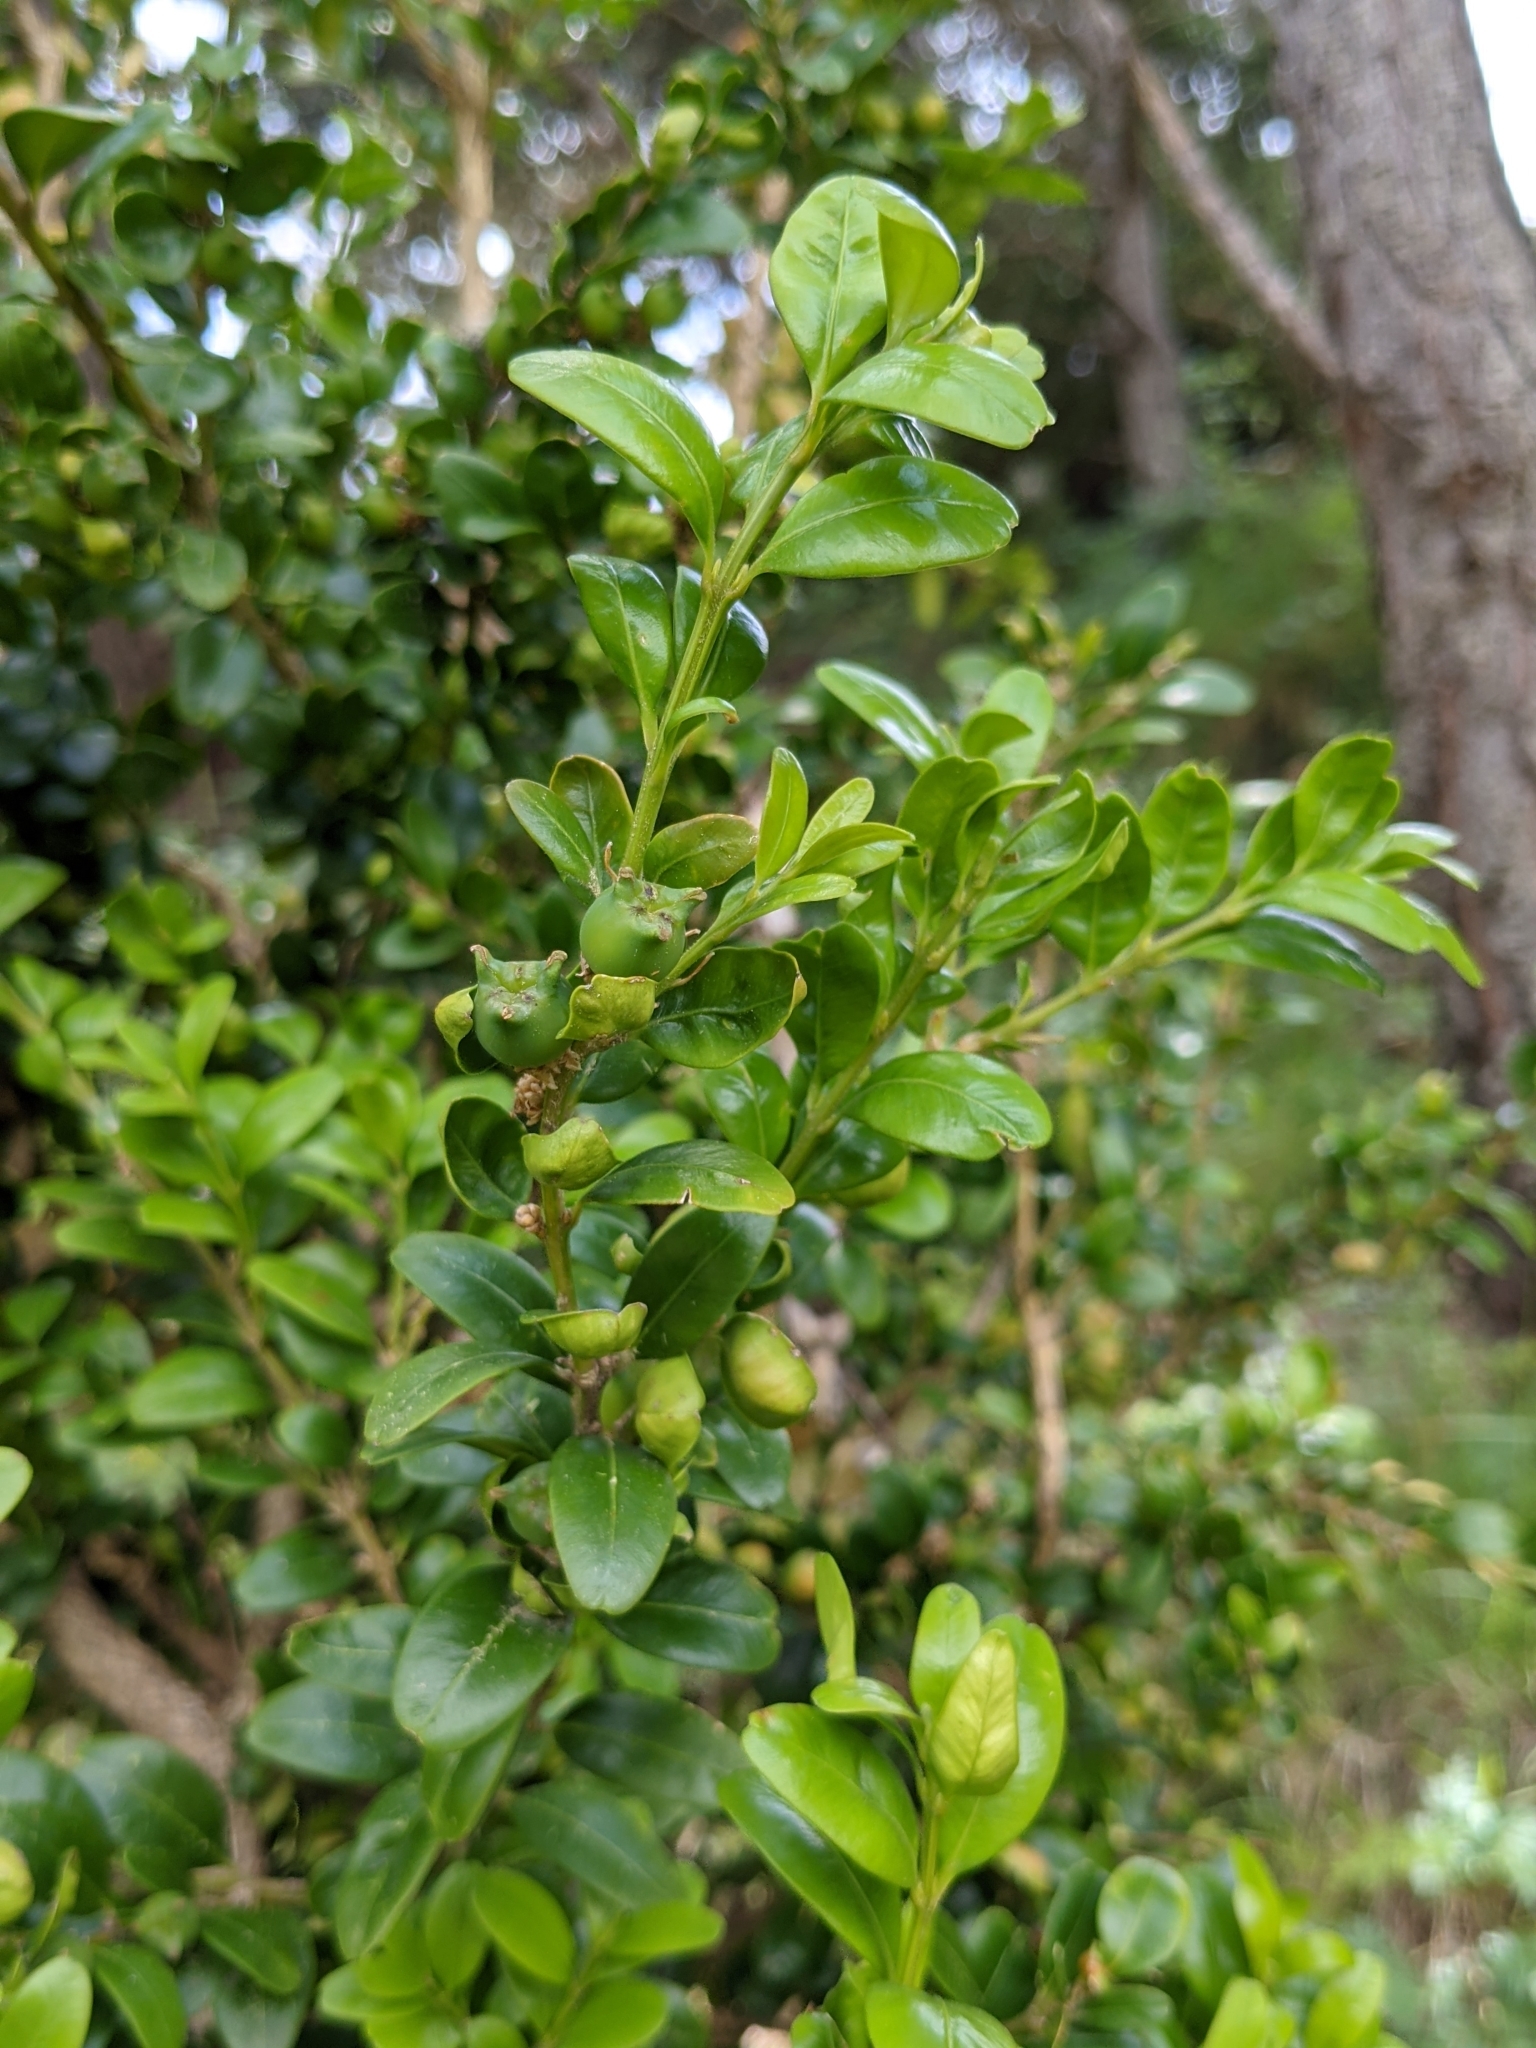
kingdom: Plantae
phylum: Tracheophyta
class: Magnoliopsida
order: Buxales
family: Buxaceae
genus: Buxus
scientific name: Buxus sempervirens
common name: Box
